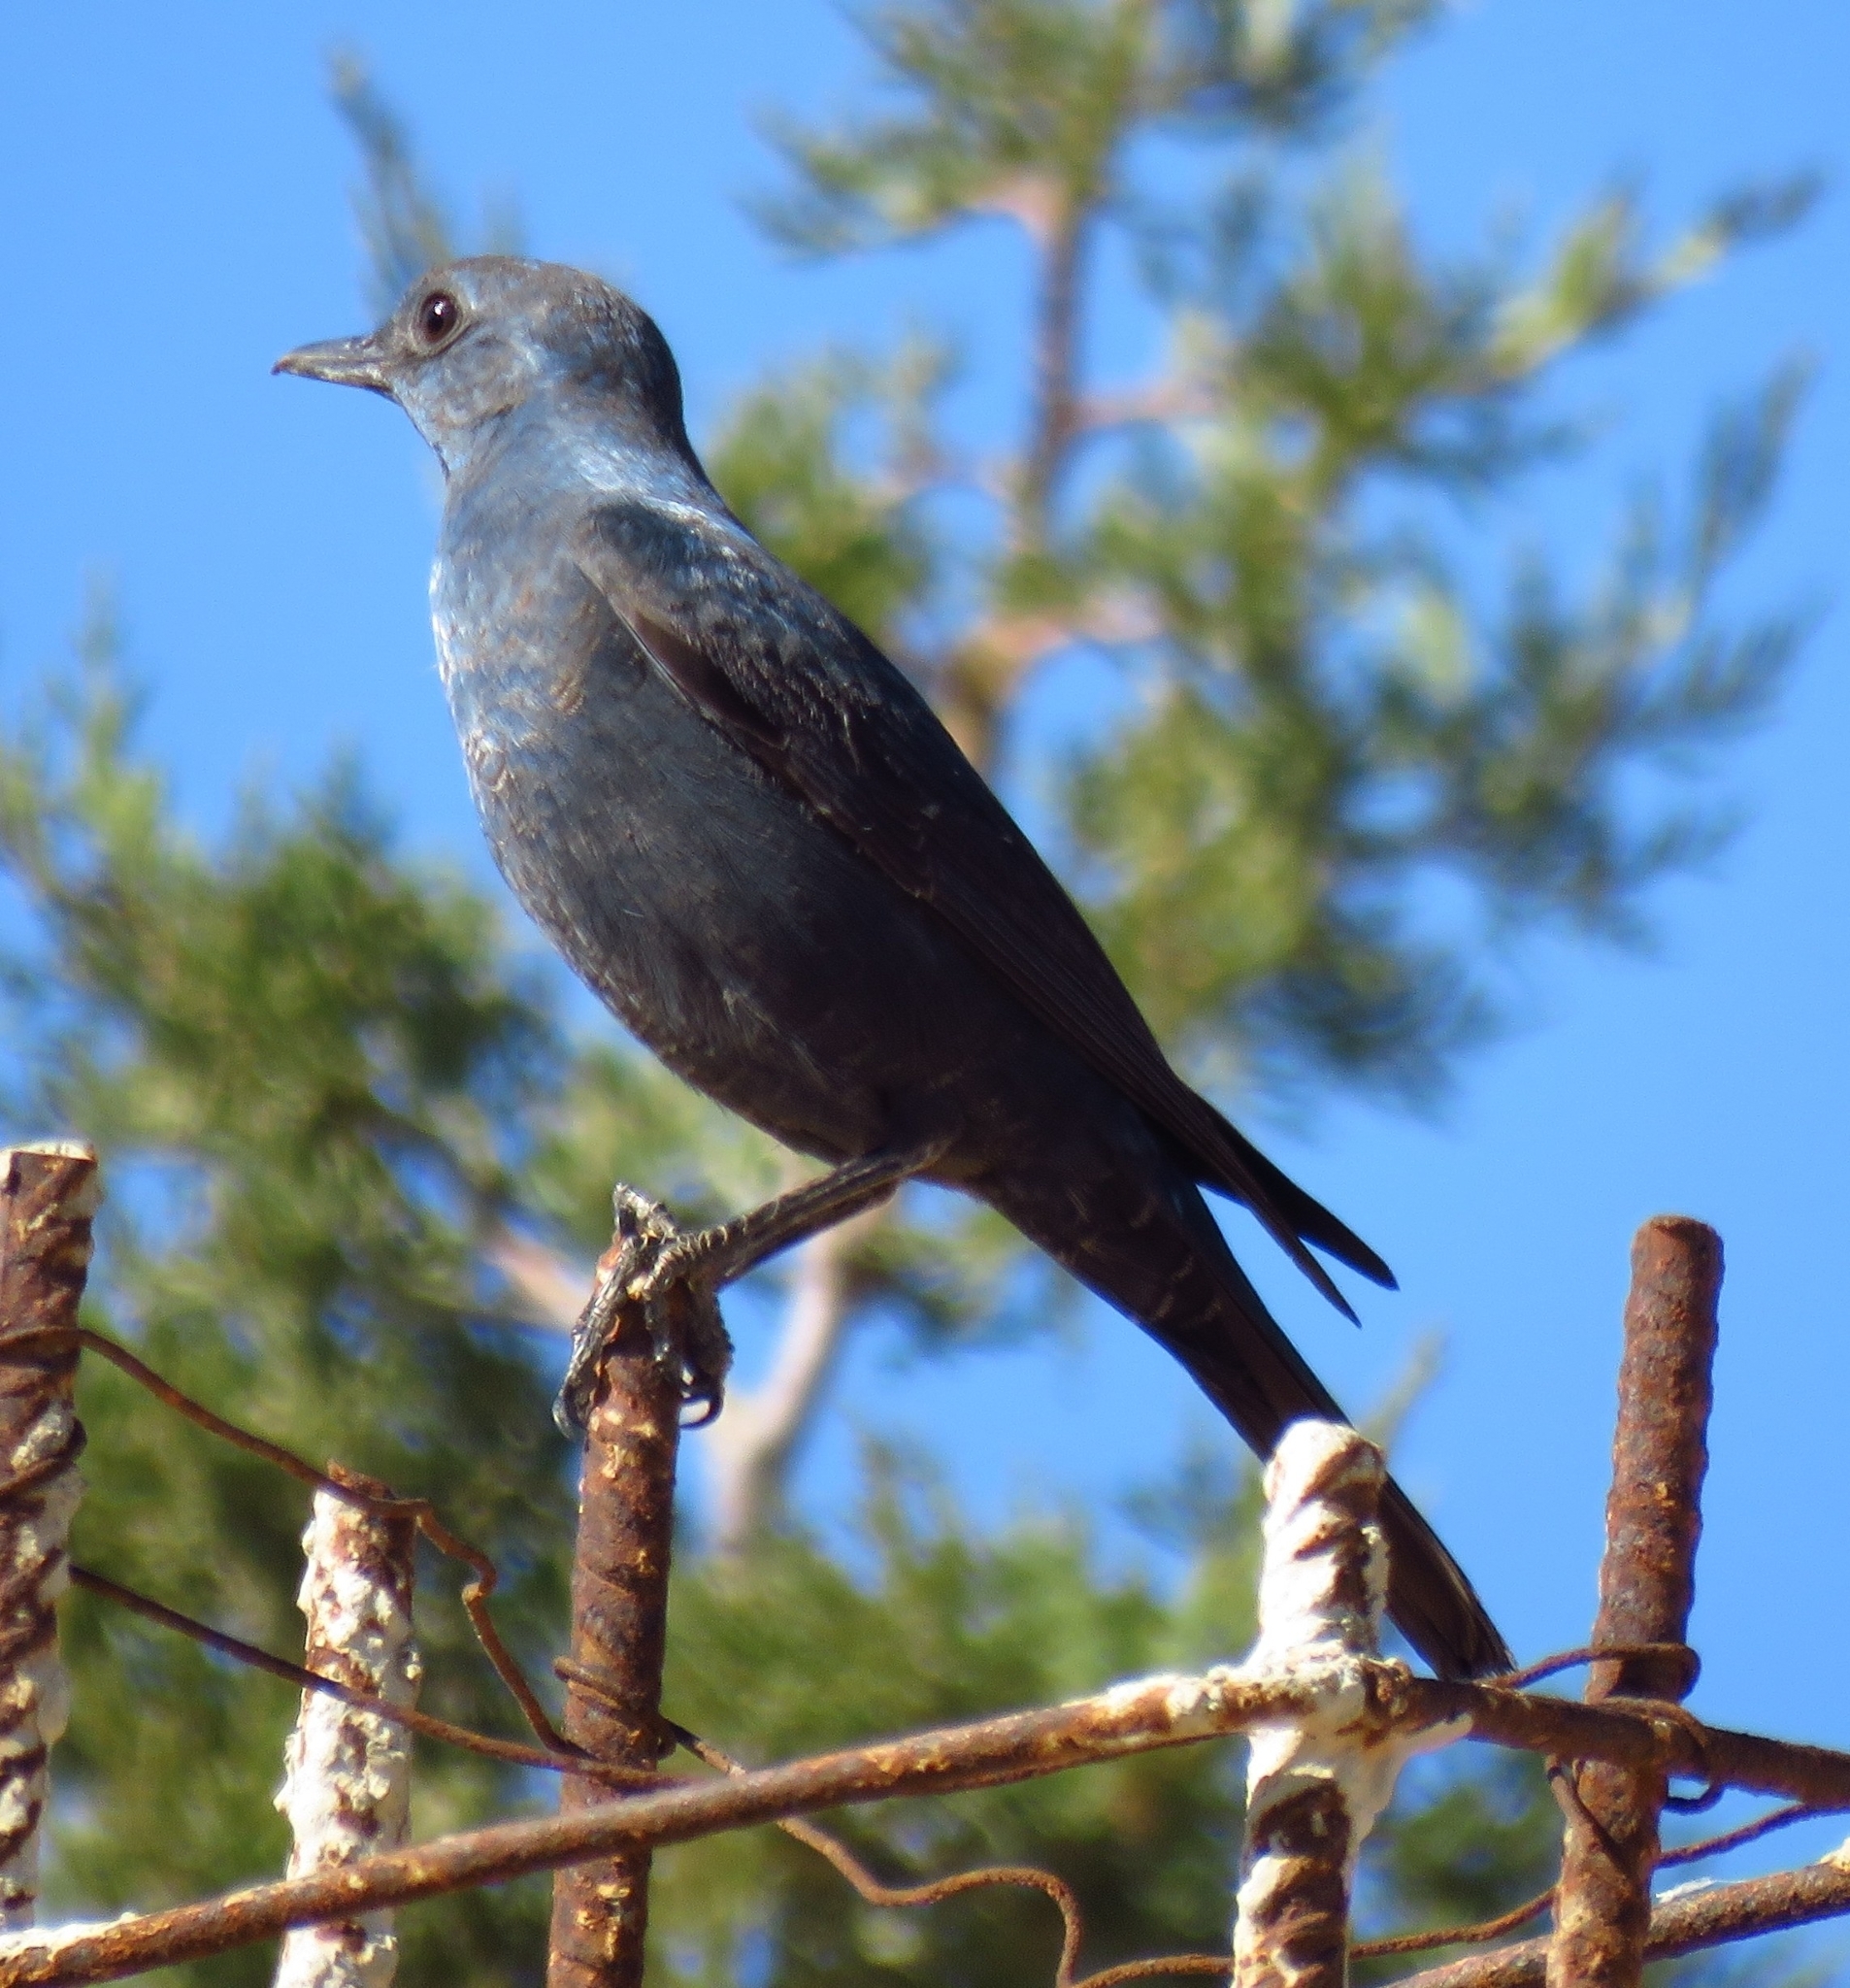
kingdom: Animalia
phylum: Chordata
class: Aves
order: Passeriformes
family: Muscicapidae
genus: Monticola
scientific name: Monticola solitarius
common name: Blue rock thrush
